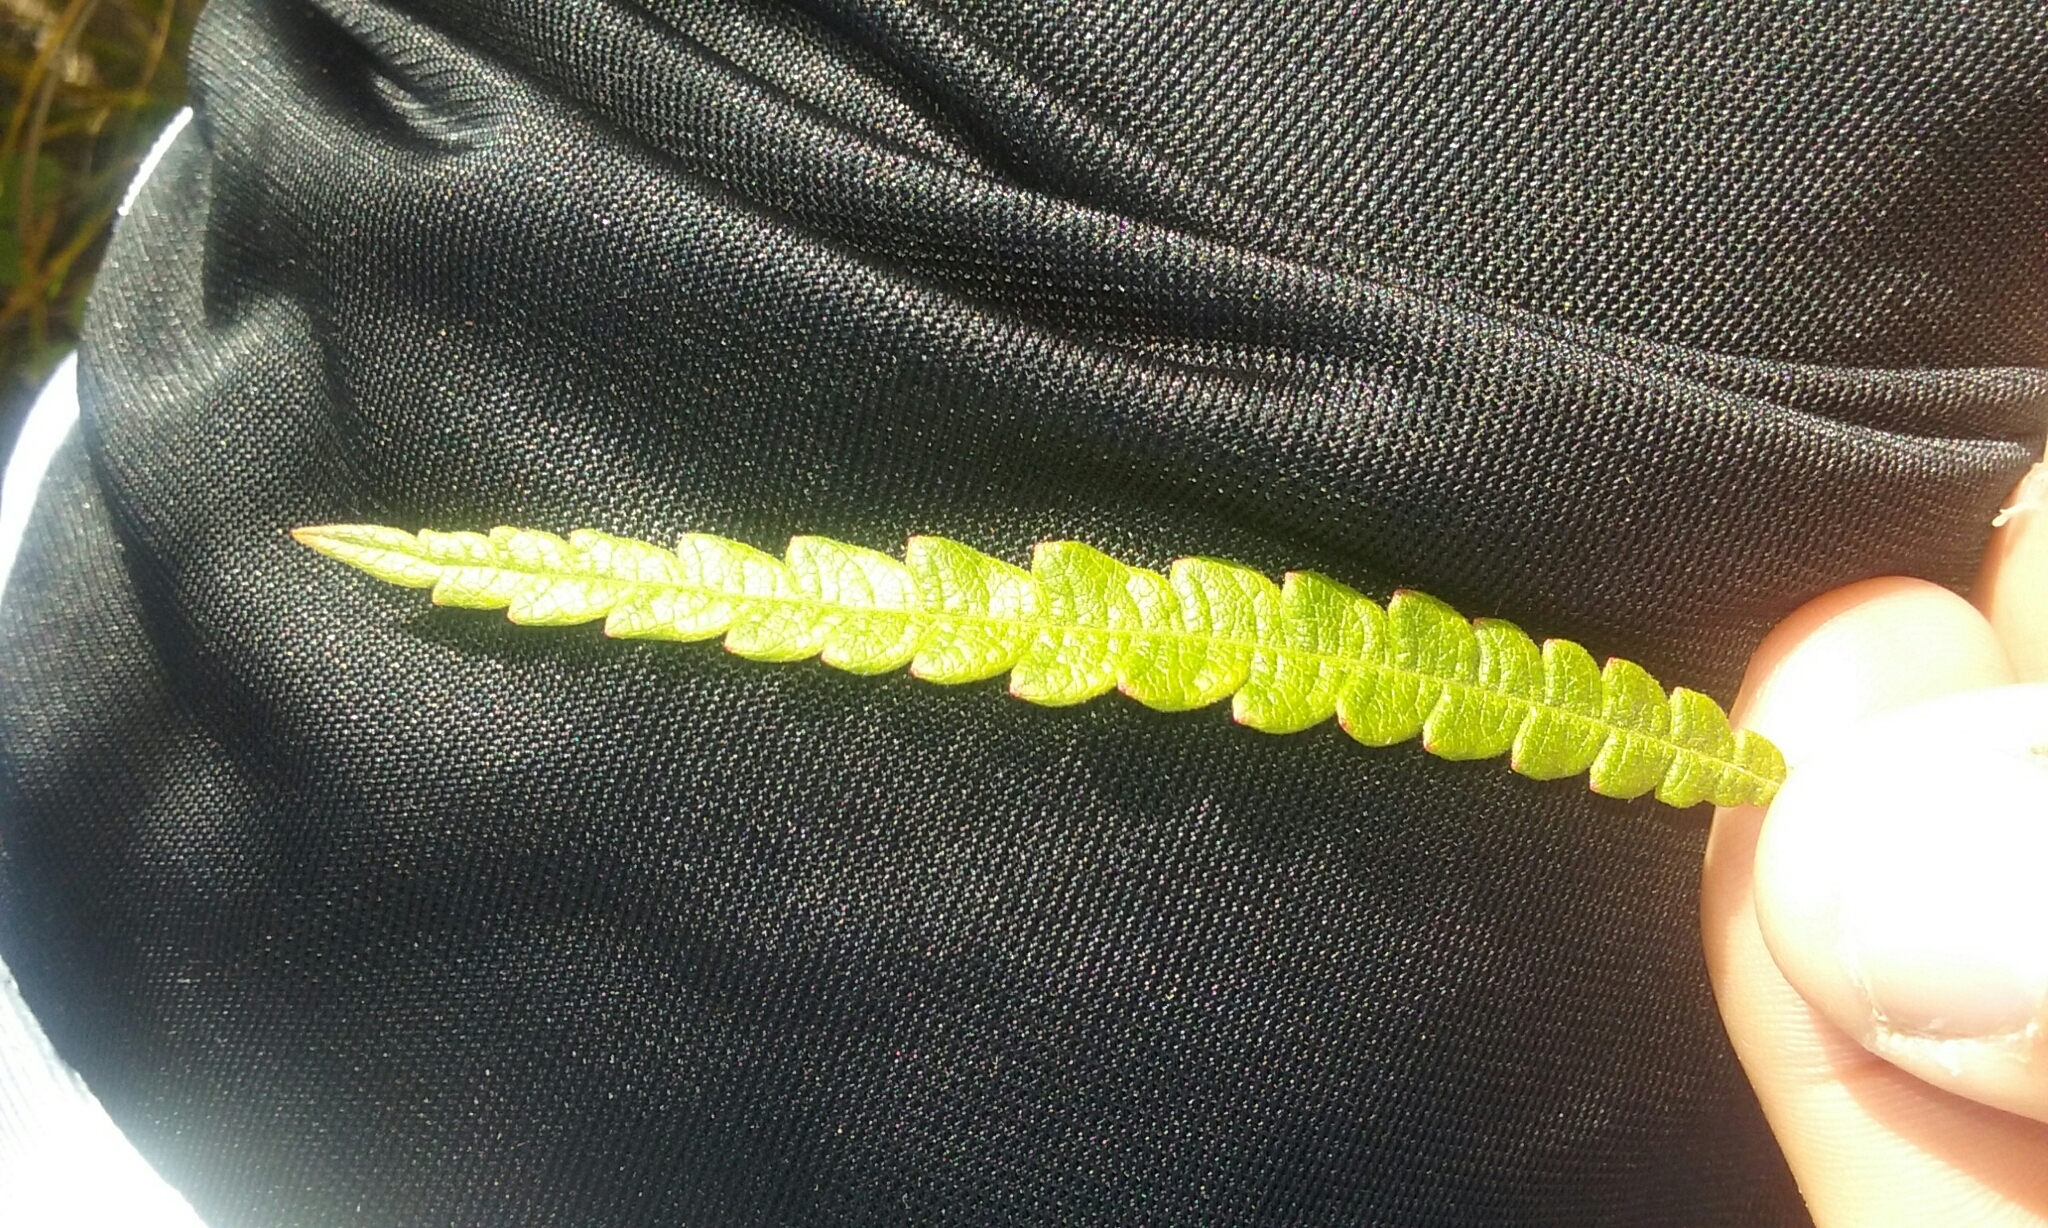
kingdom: Plantae
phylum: Tracheophyta
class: Magnoliopsida
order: Fagales
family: Myricaceae
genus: Comptonia
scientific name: Comptonia peregrina
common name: Sweet-fern
